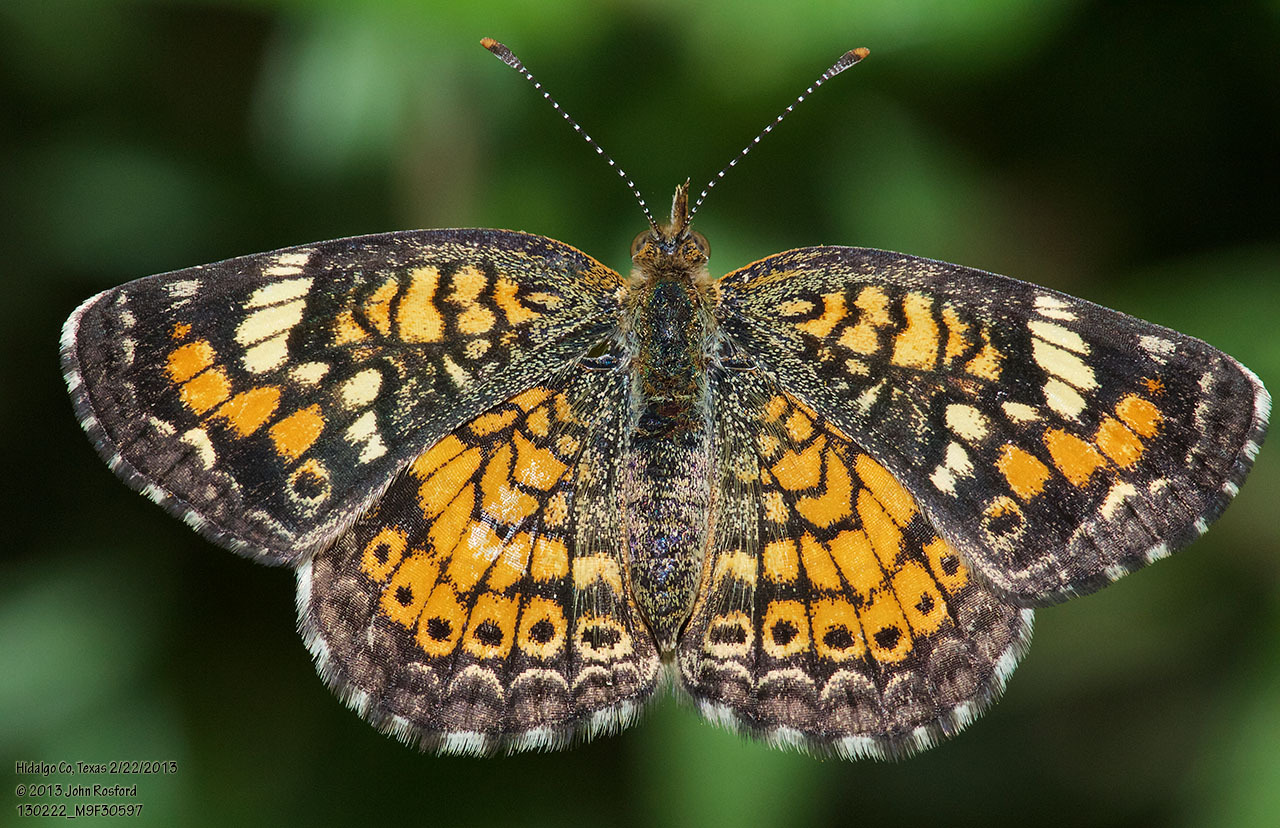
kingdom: Animalia
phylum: Arthropoda
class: Insecta
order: Lepidoptera
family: Nymphalidae
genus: Phyciodes
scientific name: Phyciodes phaon
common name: Phaon crescent
